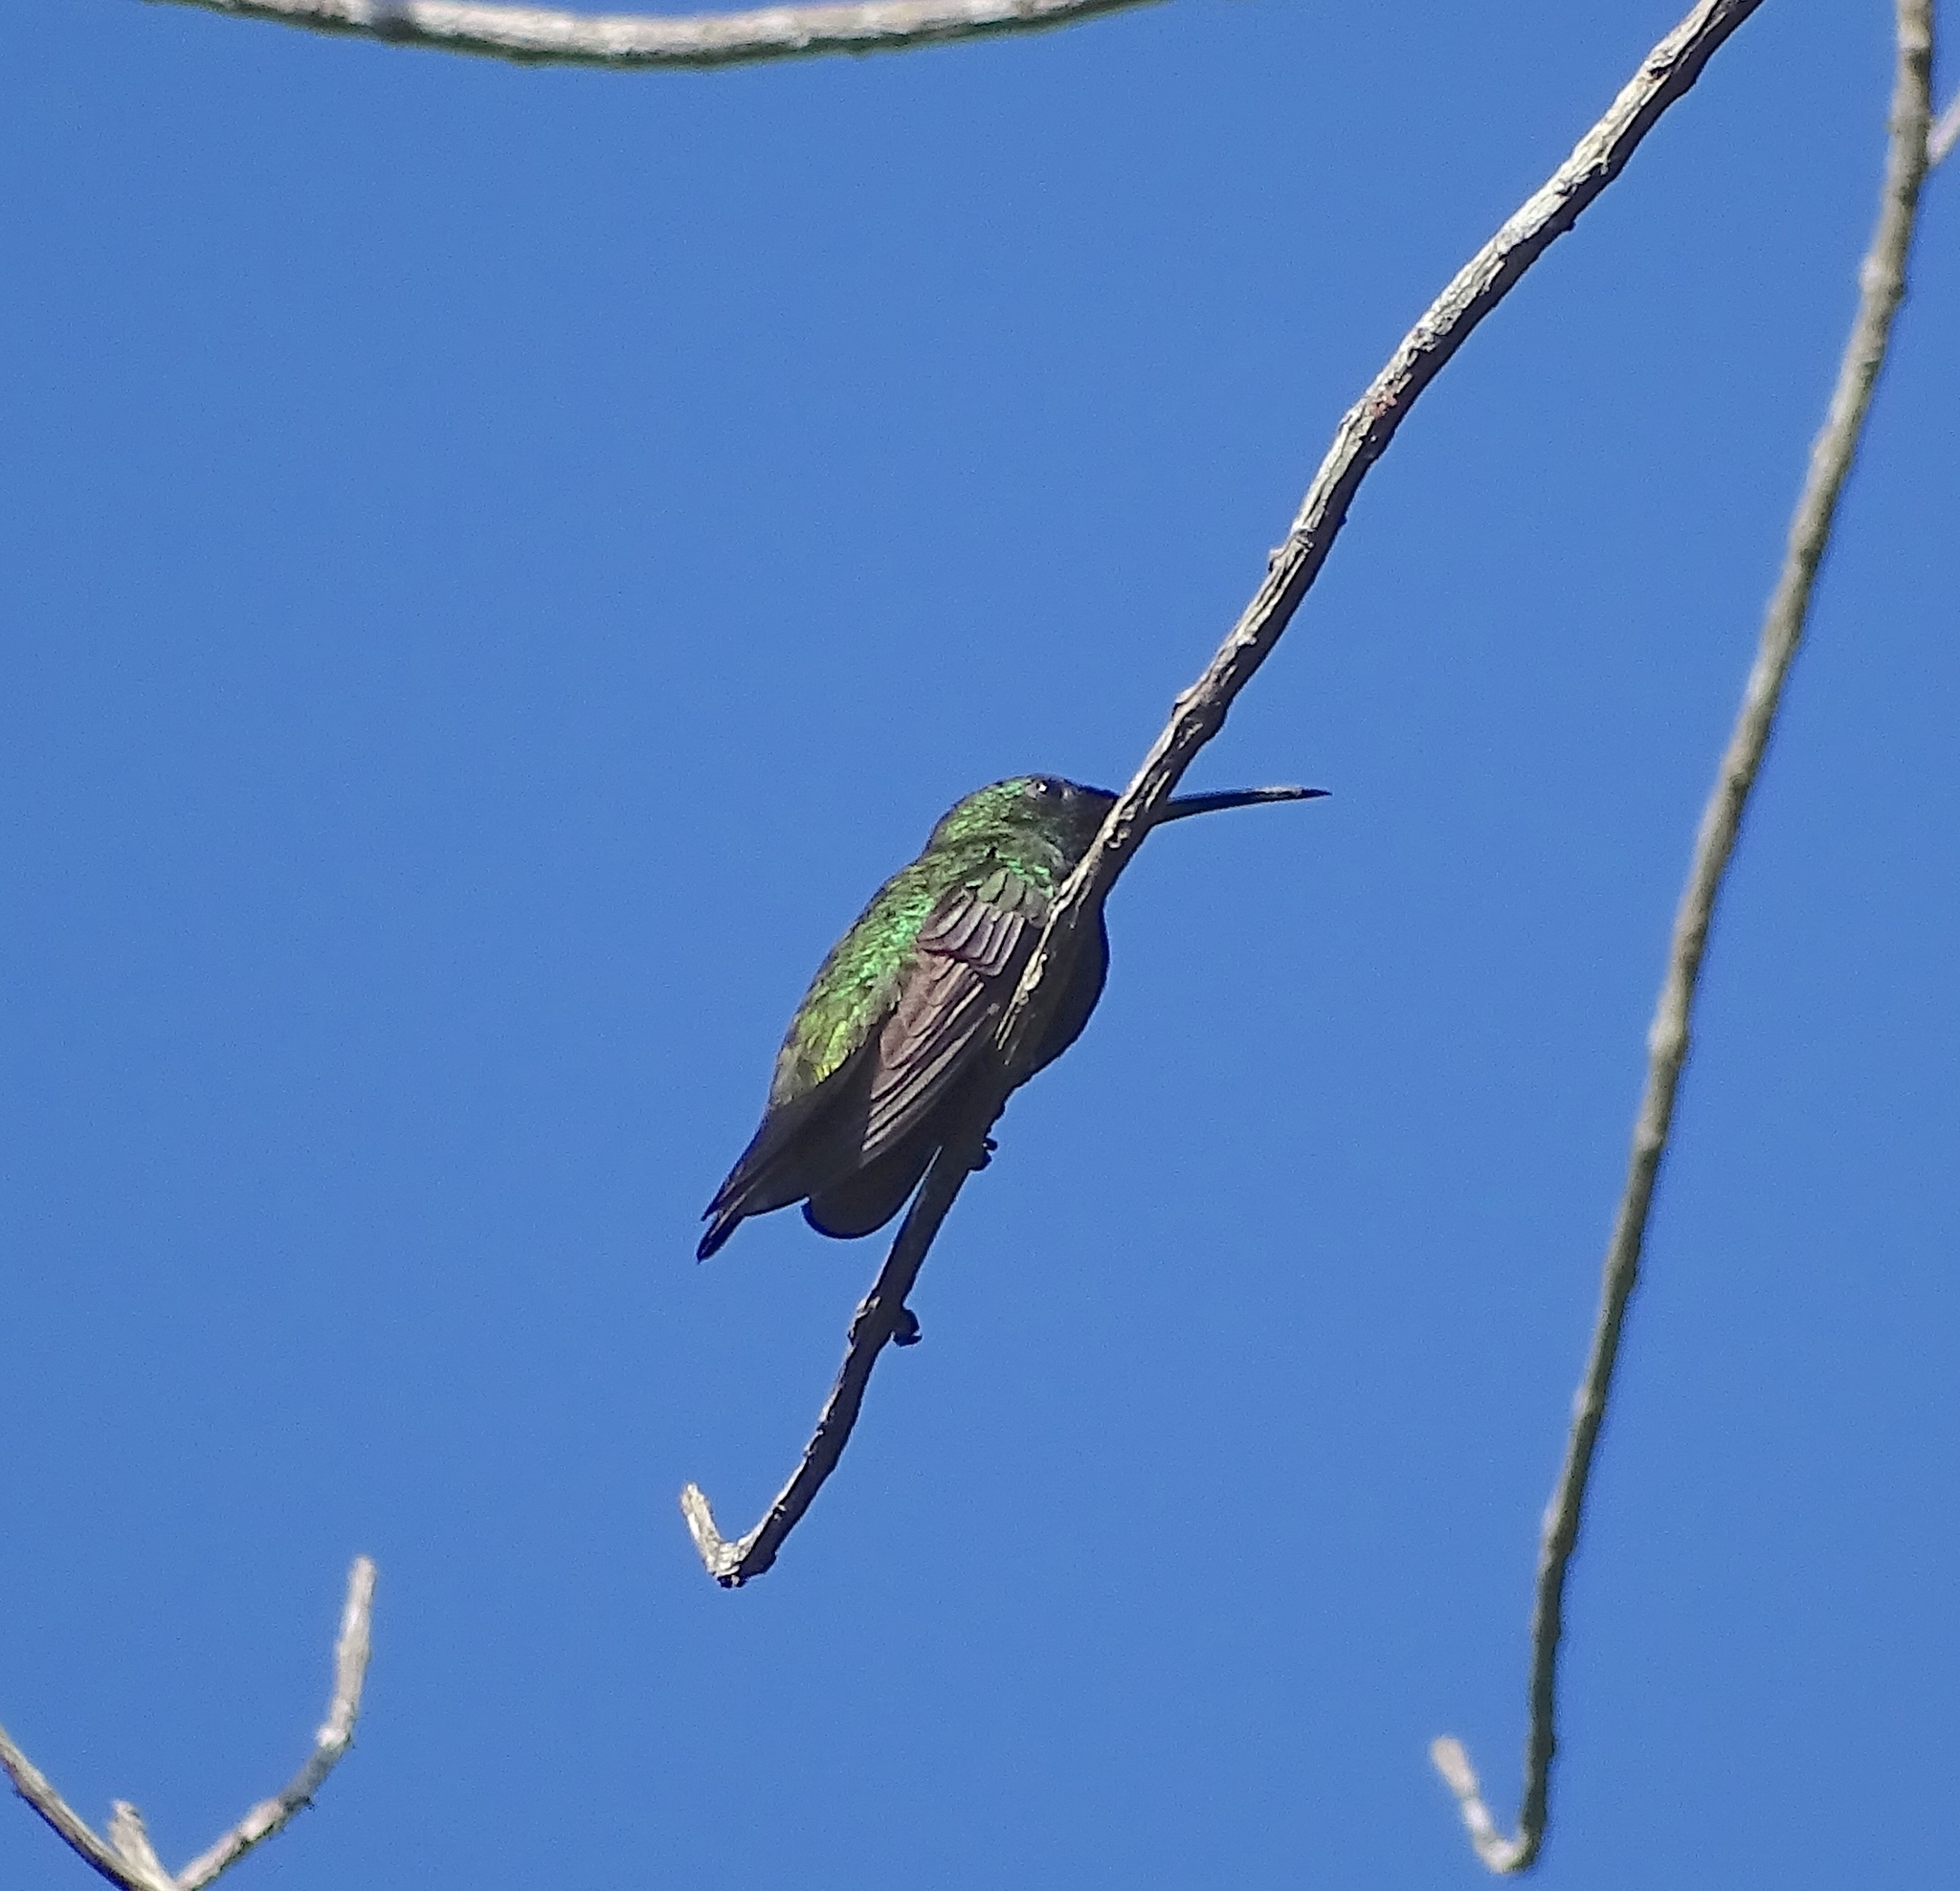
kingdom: Animalia
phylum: Chordata
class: Aves
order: Apodiformes
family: Trochilidae
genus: Anthracothorax
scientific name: Anthracothorax dominicus
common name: Antillean mango
